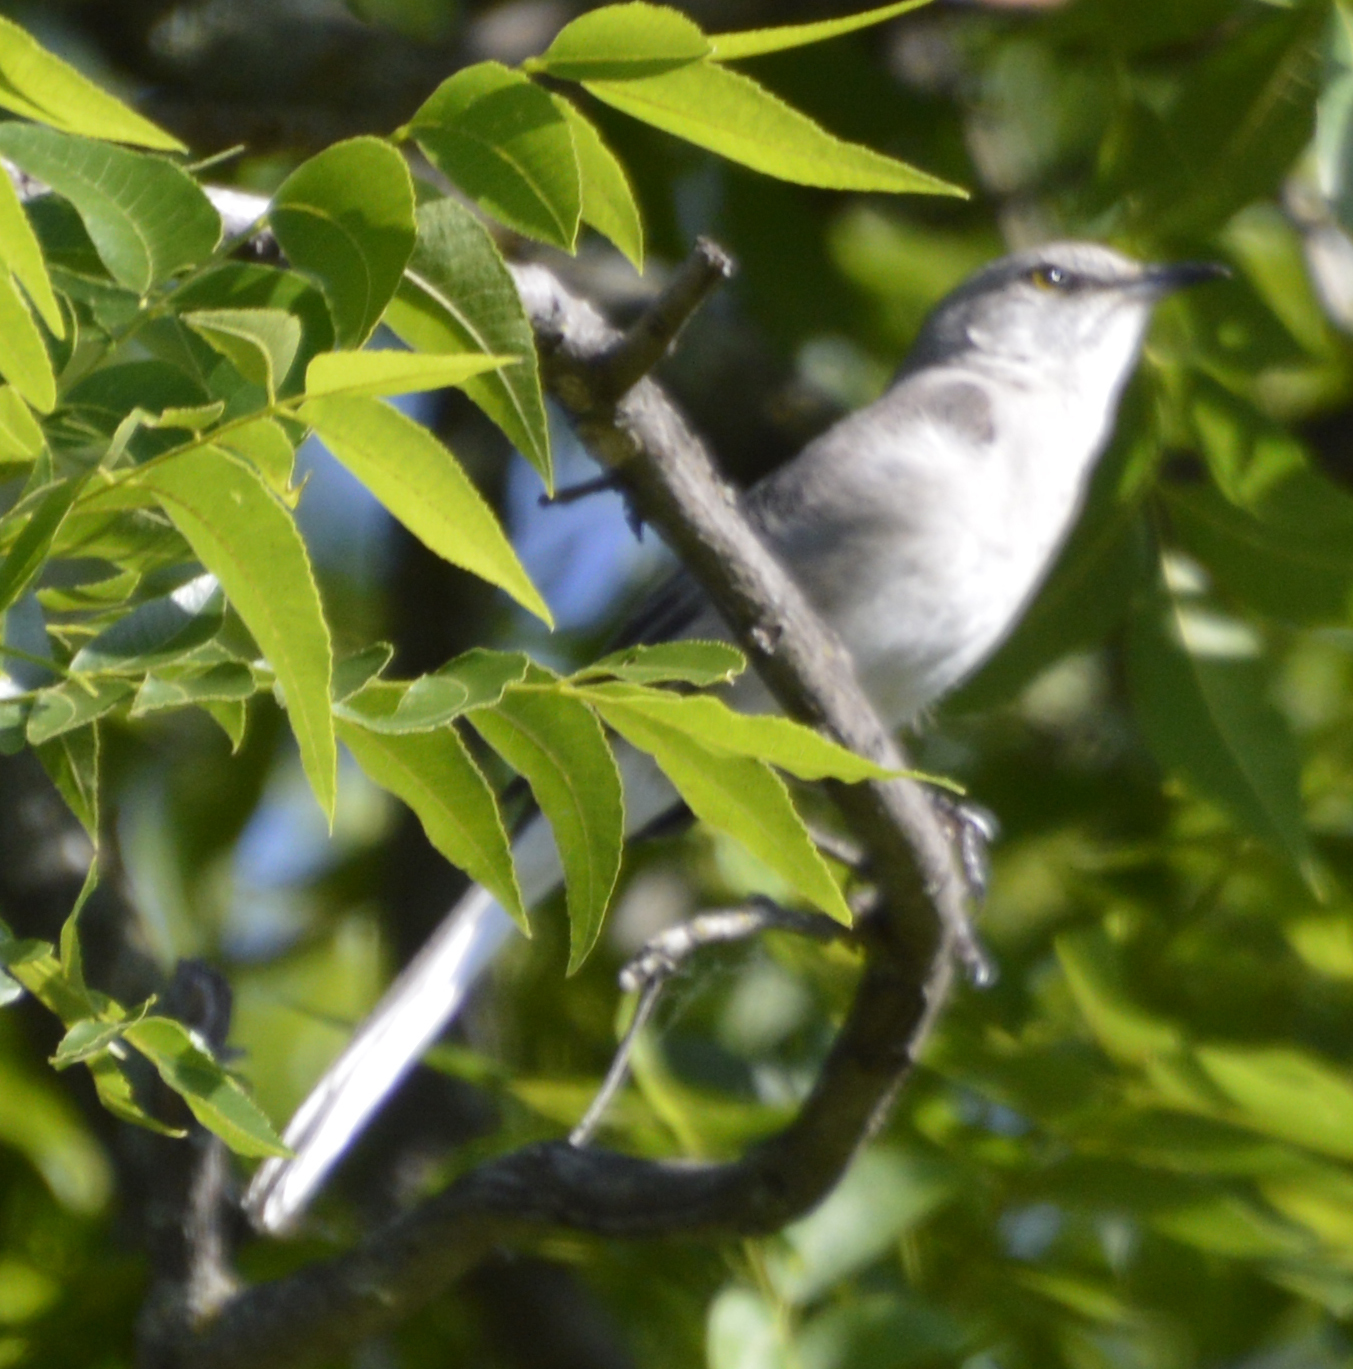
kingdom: Animalia
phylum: Chordata
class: Aves
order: Passeriformes
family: Mimidae
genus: Mimus
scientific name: Mimus polyglottos
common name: Northern mockingbird
